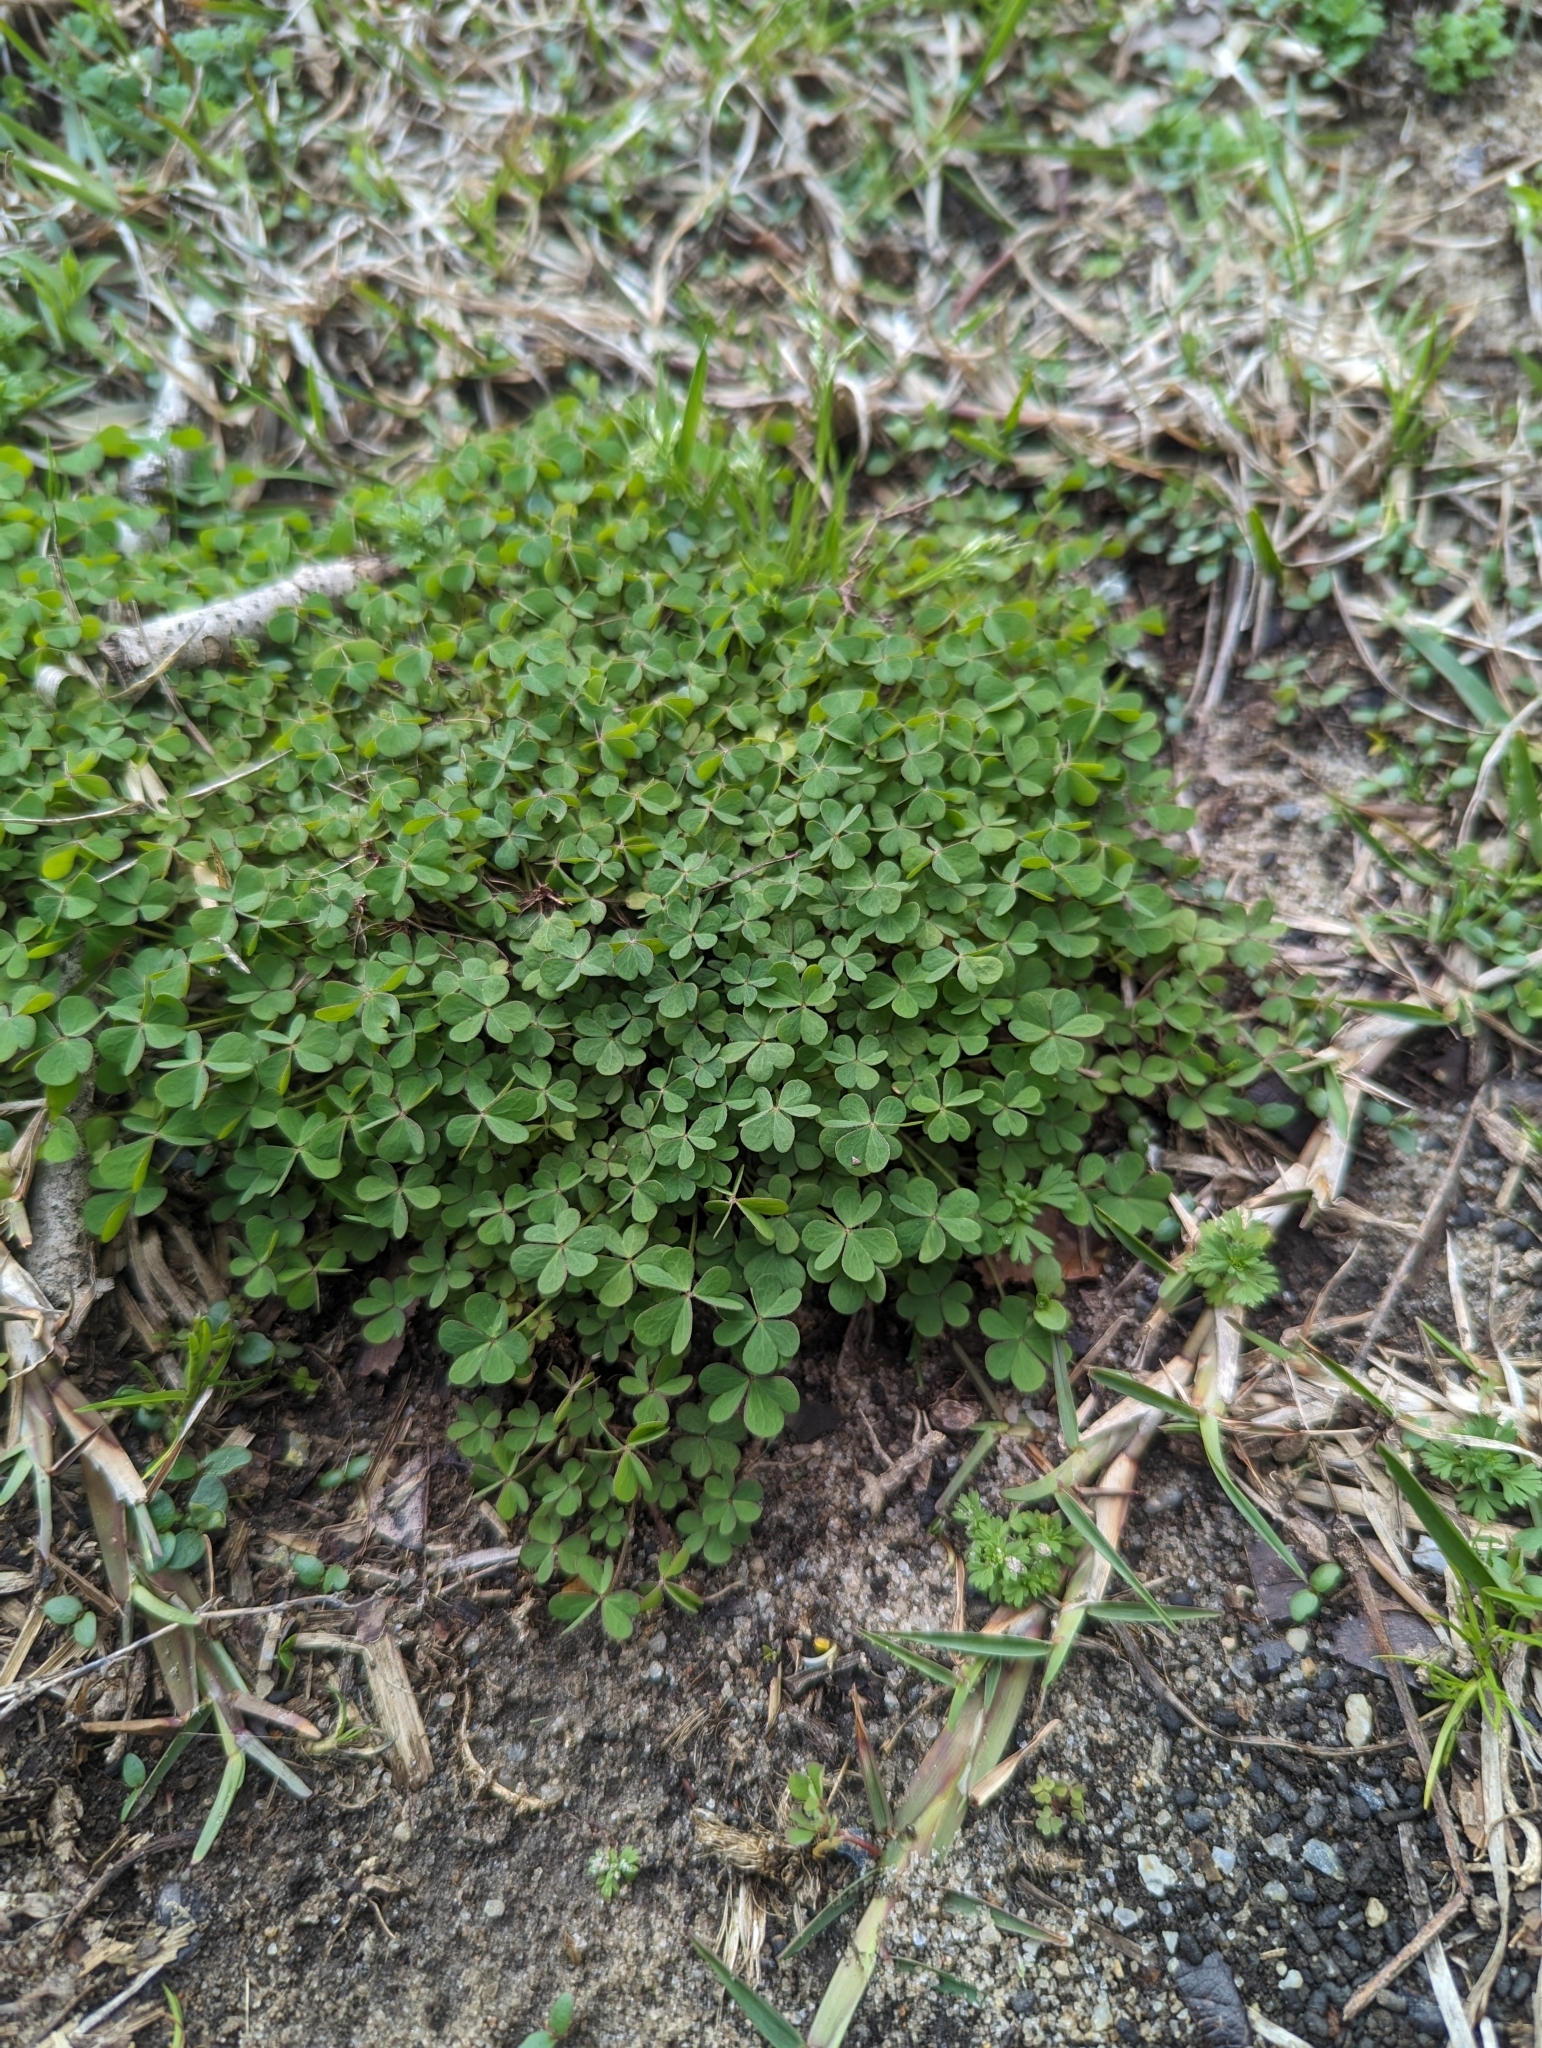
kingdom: Plantae
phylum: Tracheophyta
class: Magnoliopsida
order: Oxalidales
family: Oxalidaceae
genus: Oxalis
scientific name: Oxalis corniculata
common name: Procumbent yellow-sorrel
